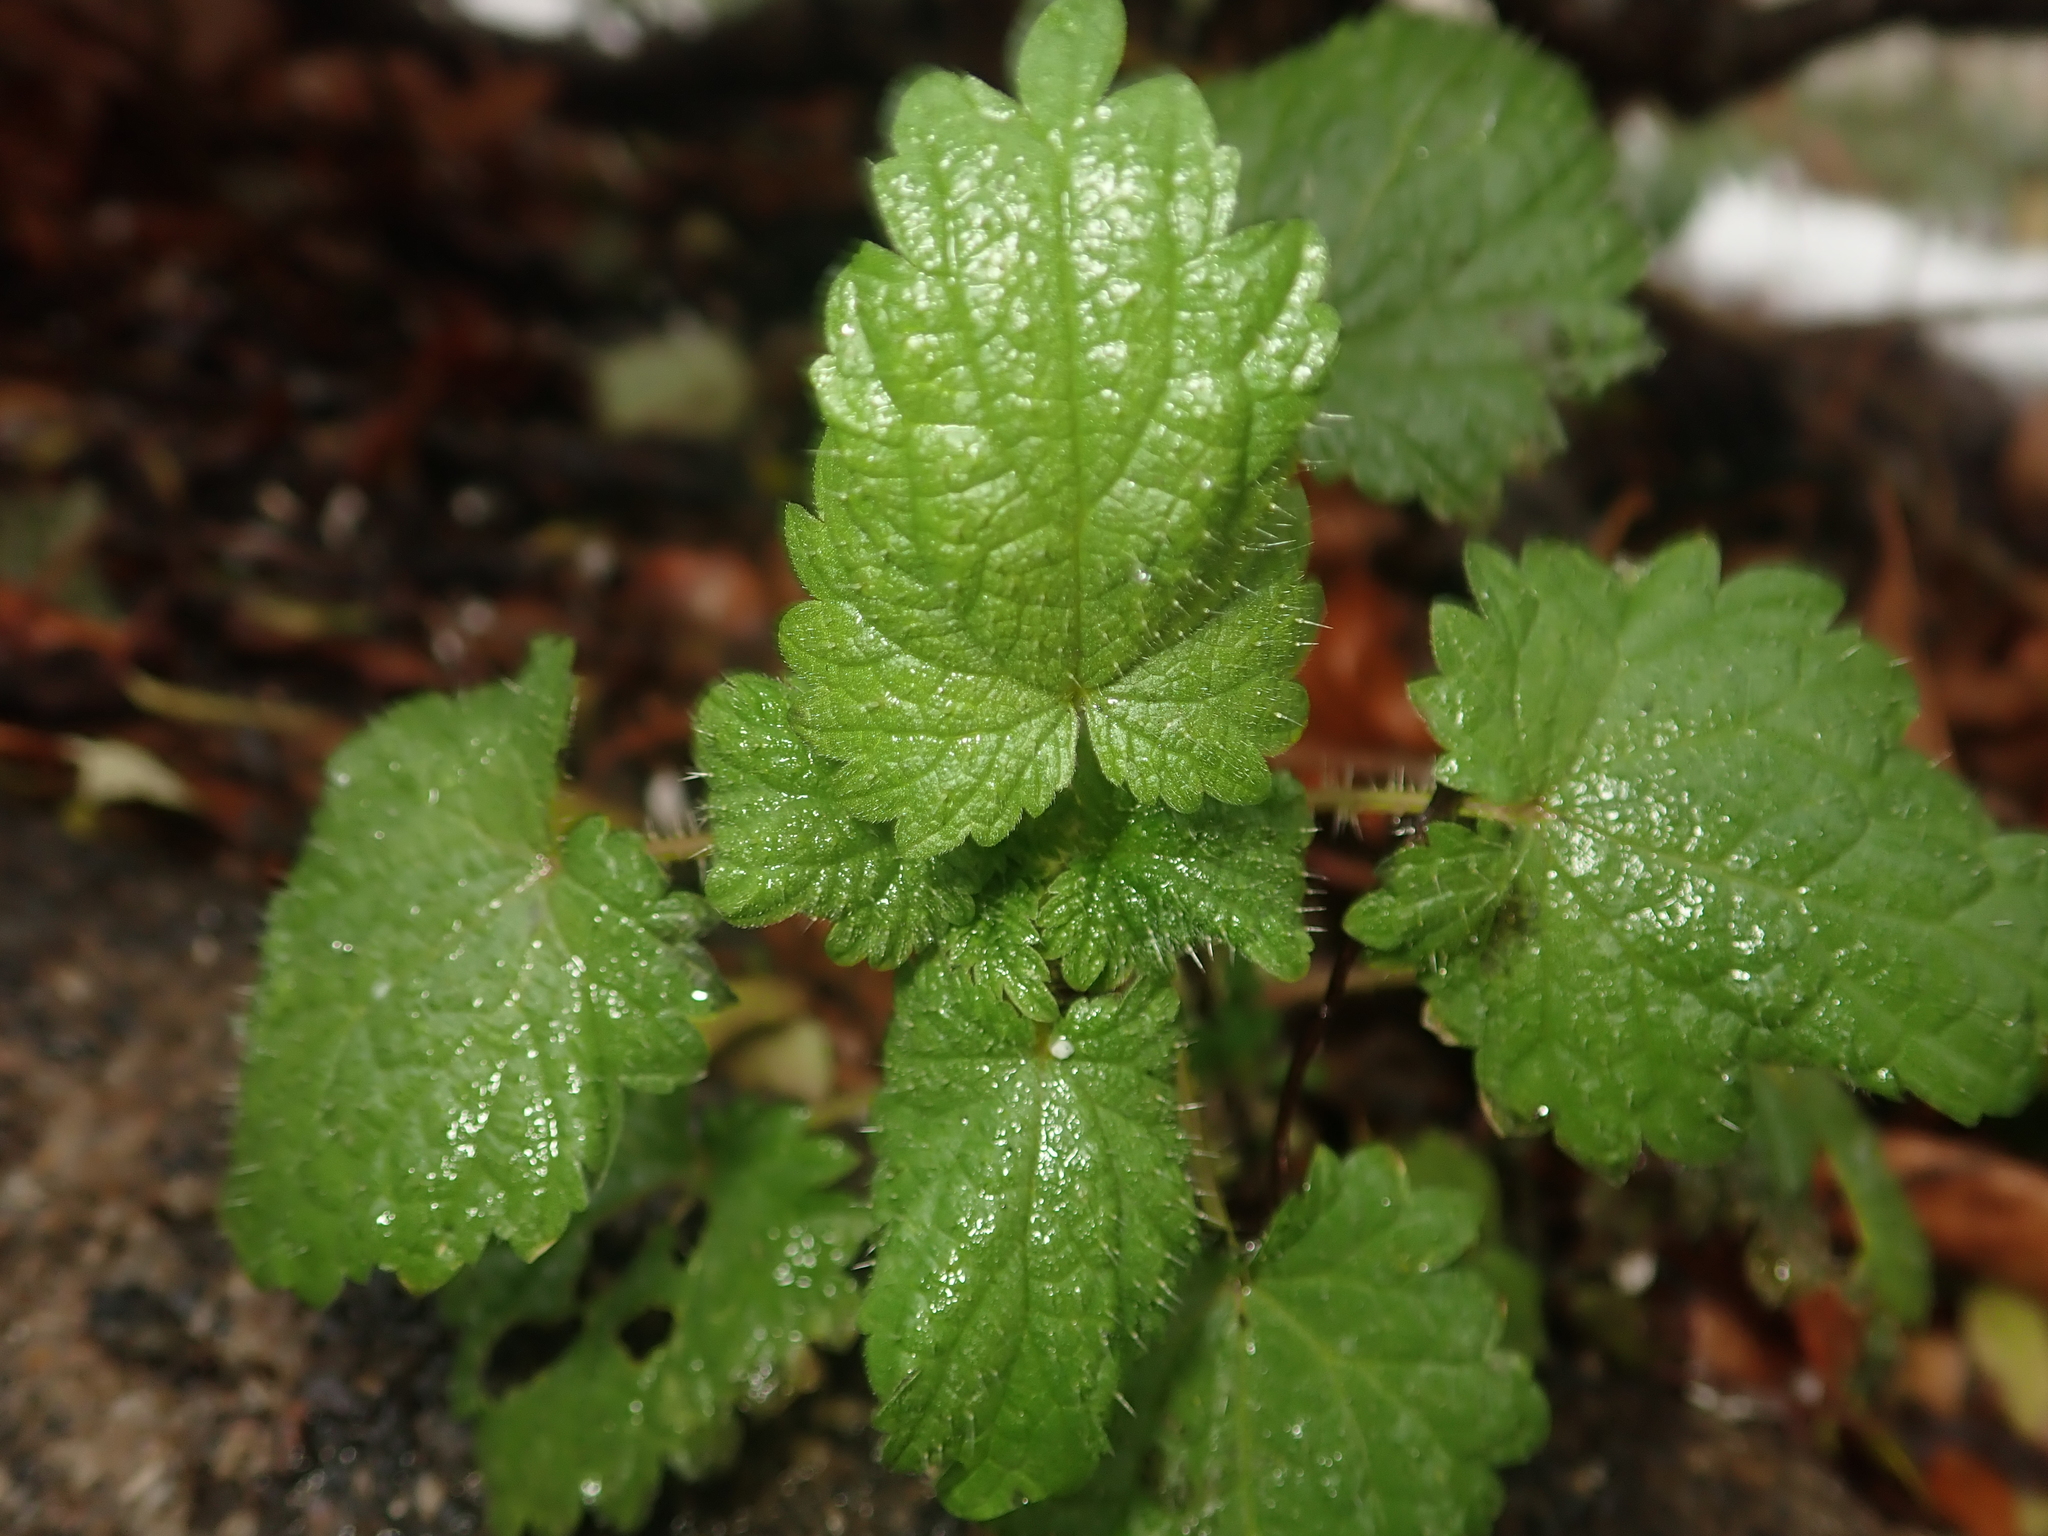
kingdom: Plantae
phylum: Tracheophyta
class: Magnoliopsida
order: Rosales
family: Urticaceae
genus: Urtica
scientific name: Urtica dioica
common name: Common nettle
